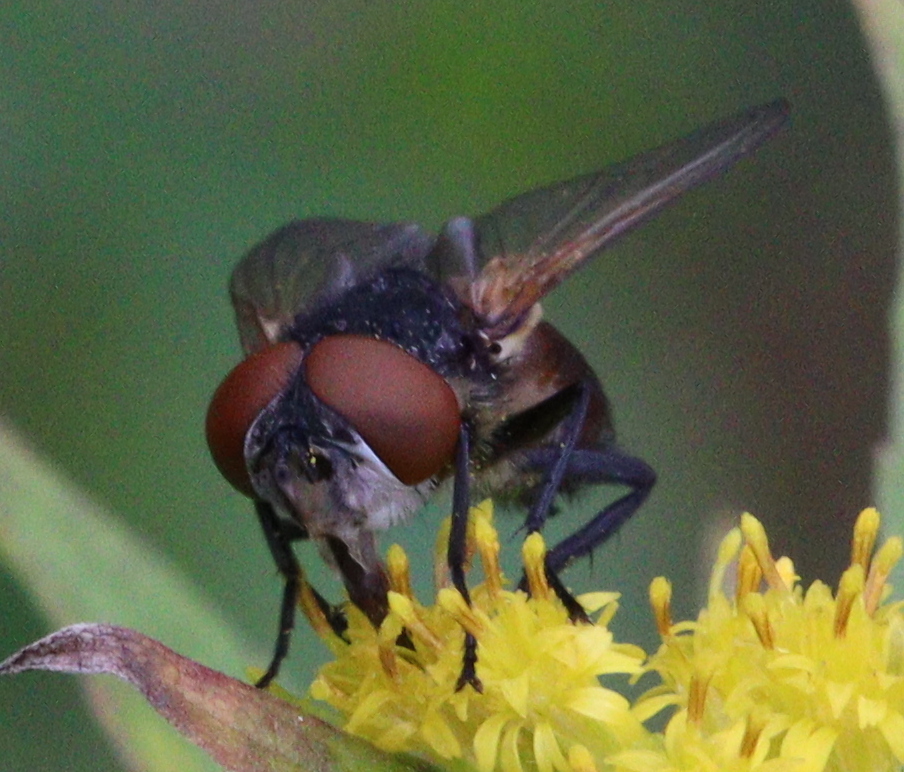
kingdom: Animalia
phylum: Arthropoda
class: Insecta
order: Diptera
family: Tachinidae
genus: Phasia
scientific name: Phasia aurigera
